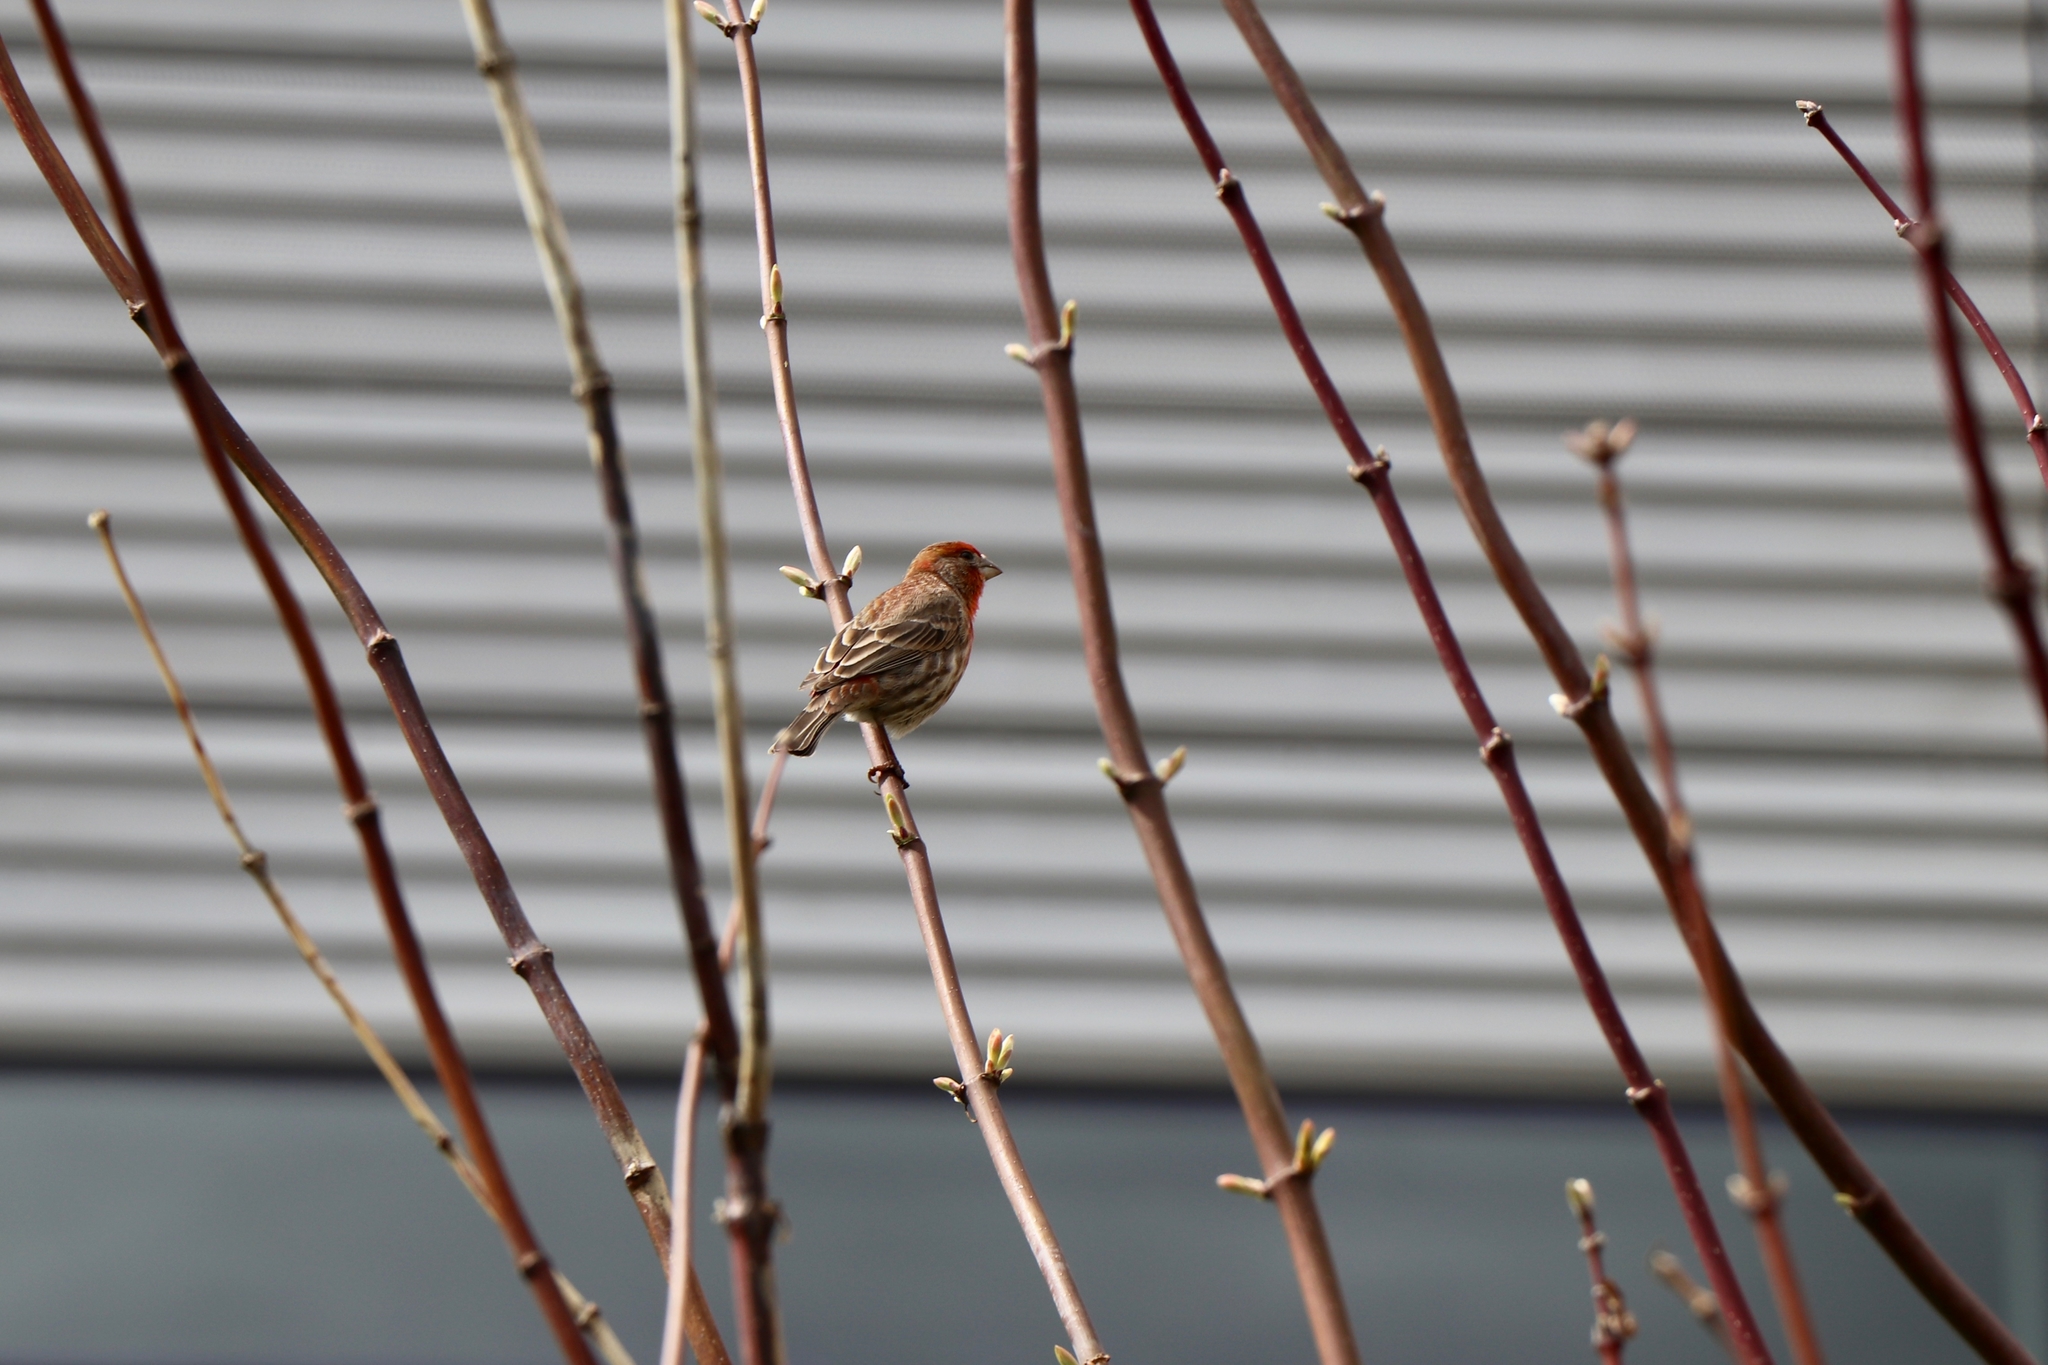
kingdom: Animalia
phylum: Chordata
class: Aves
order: Passeriformes
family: Fringillidae
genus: Haemorhous
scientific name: Haemorhous mexicanus
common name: House finch
